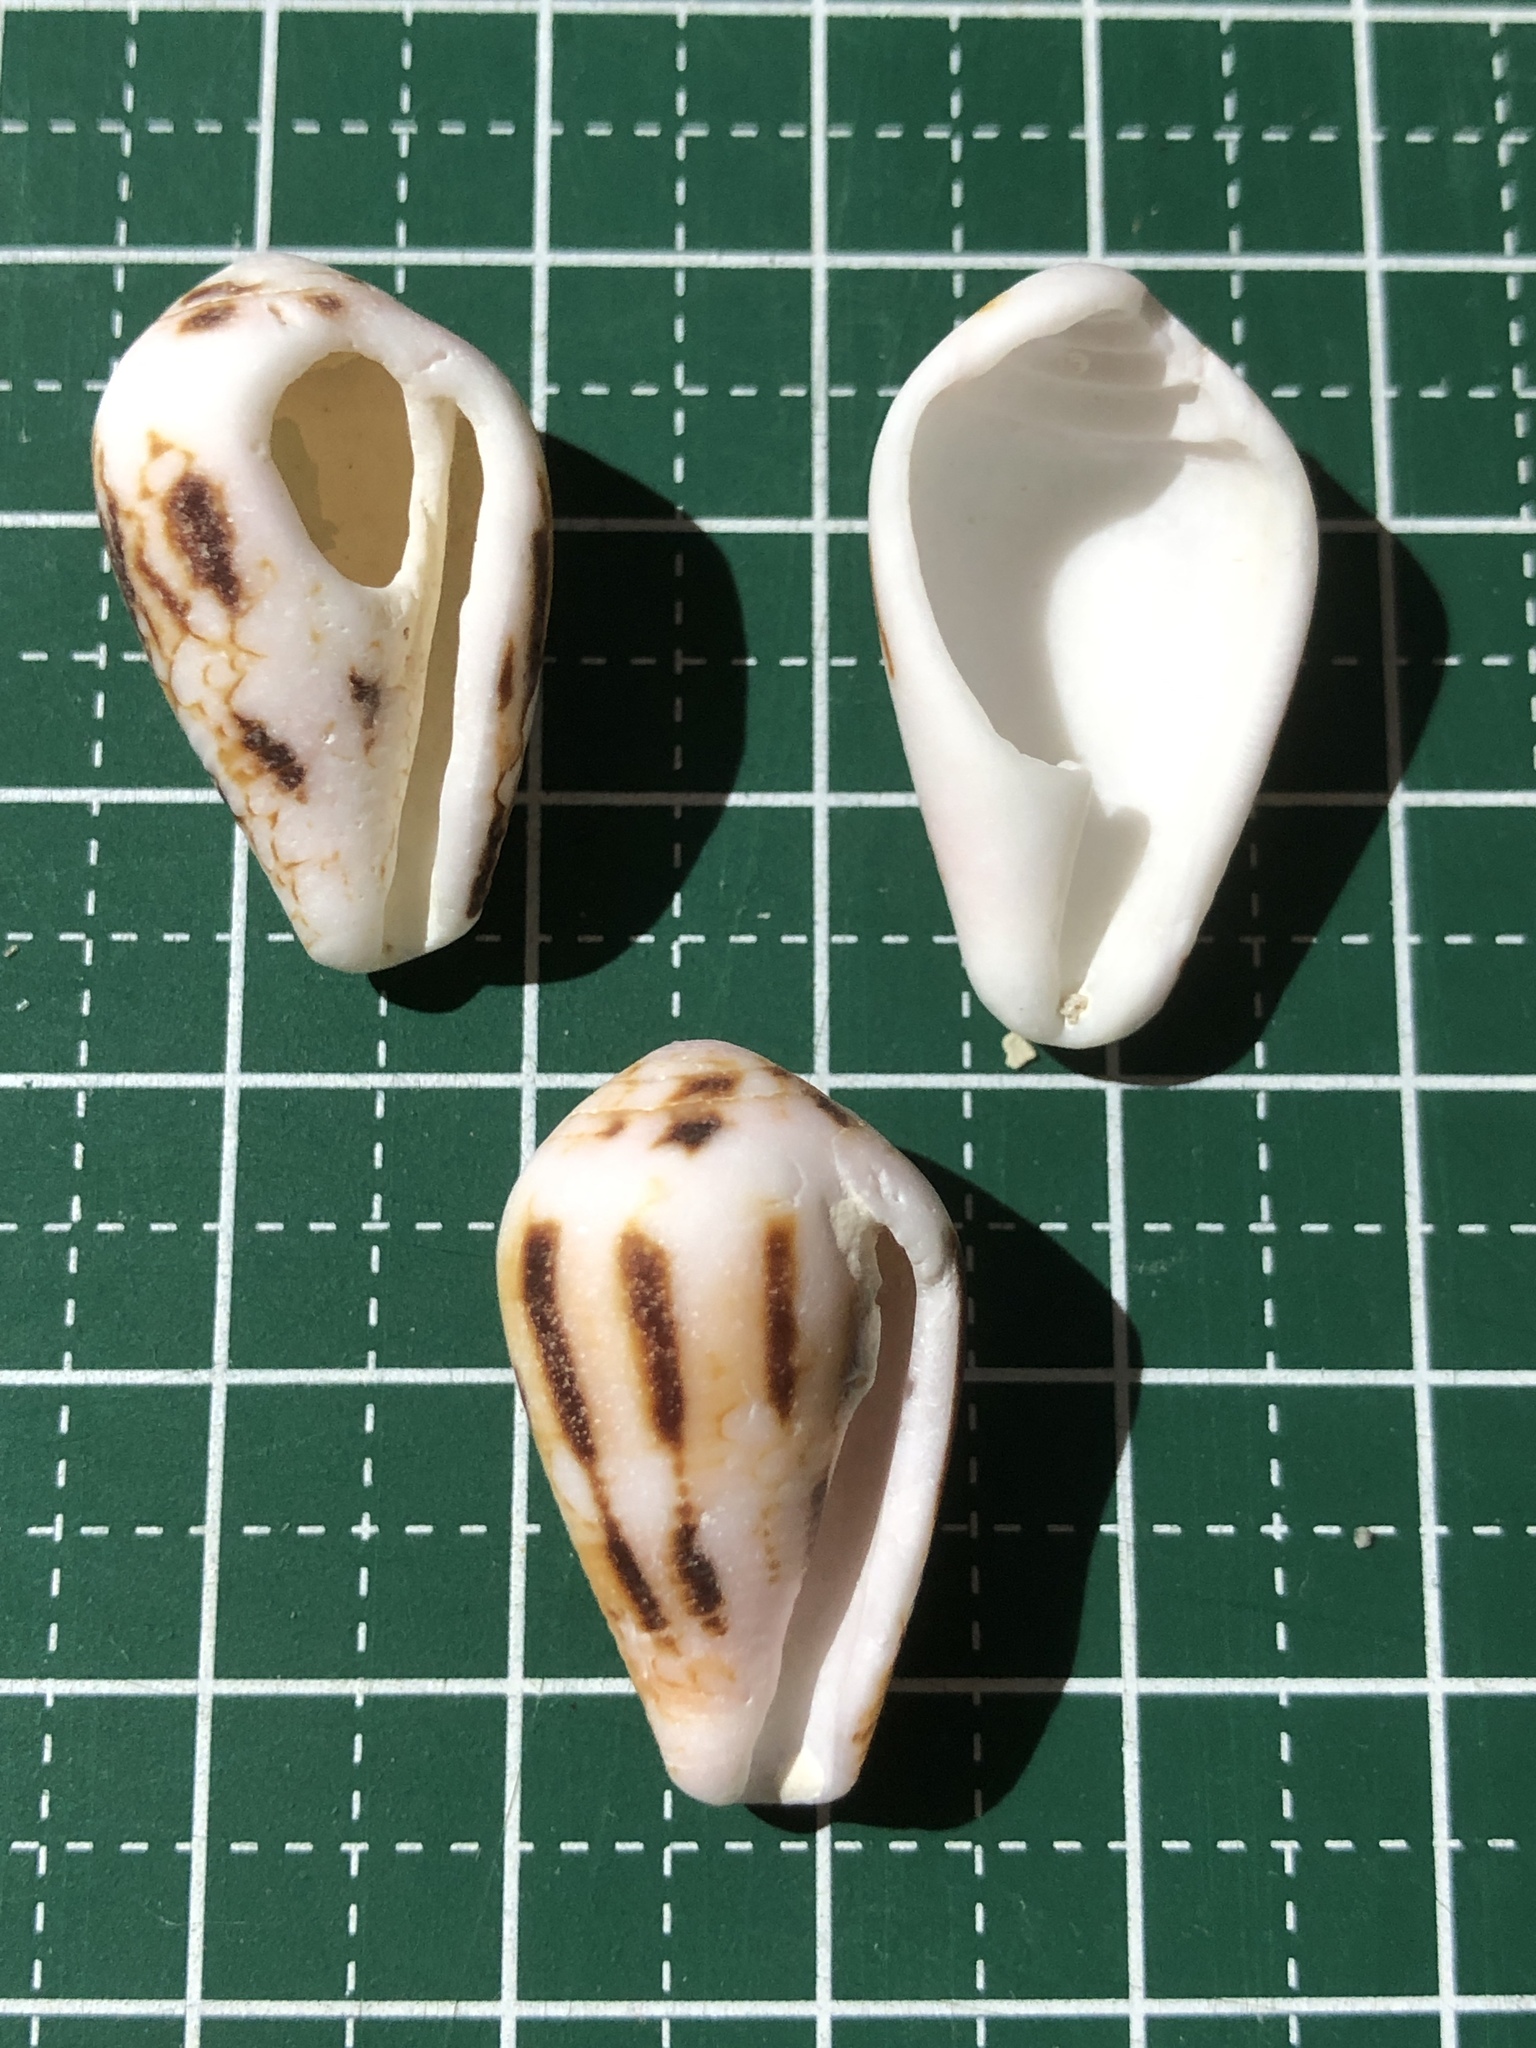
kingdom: Animalia
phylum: Mollusca
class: Gastropoda
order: Neogastropoda
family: Conidae
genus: Conus
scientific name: Conus retifer
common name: Netted cone
